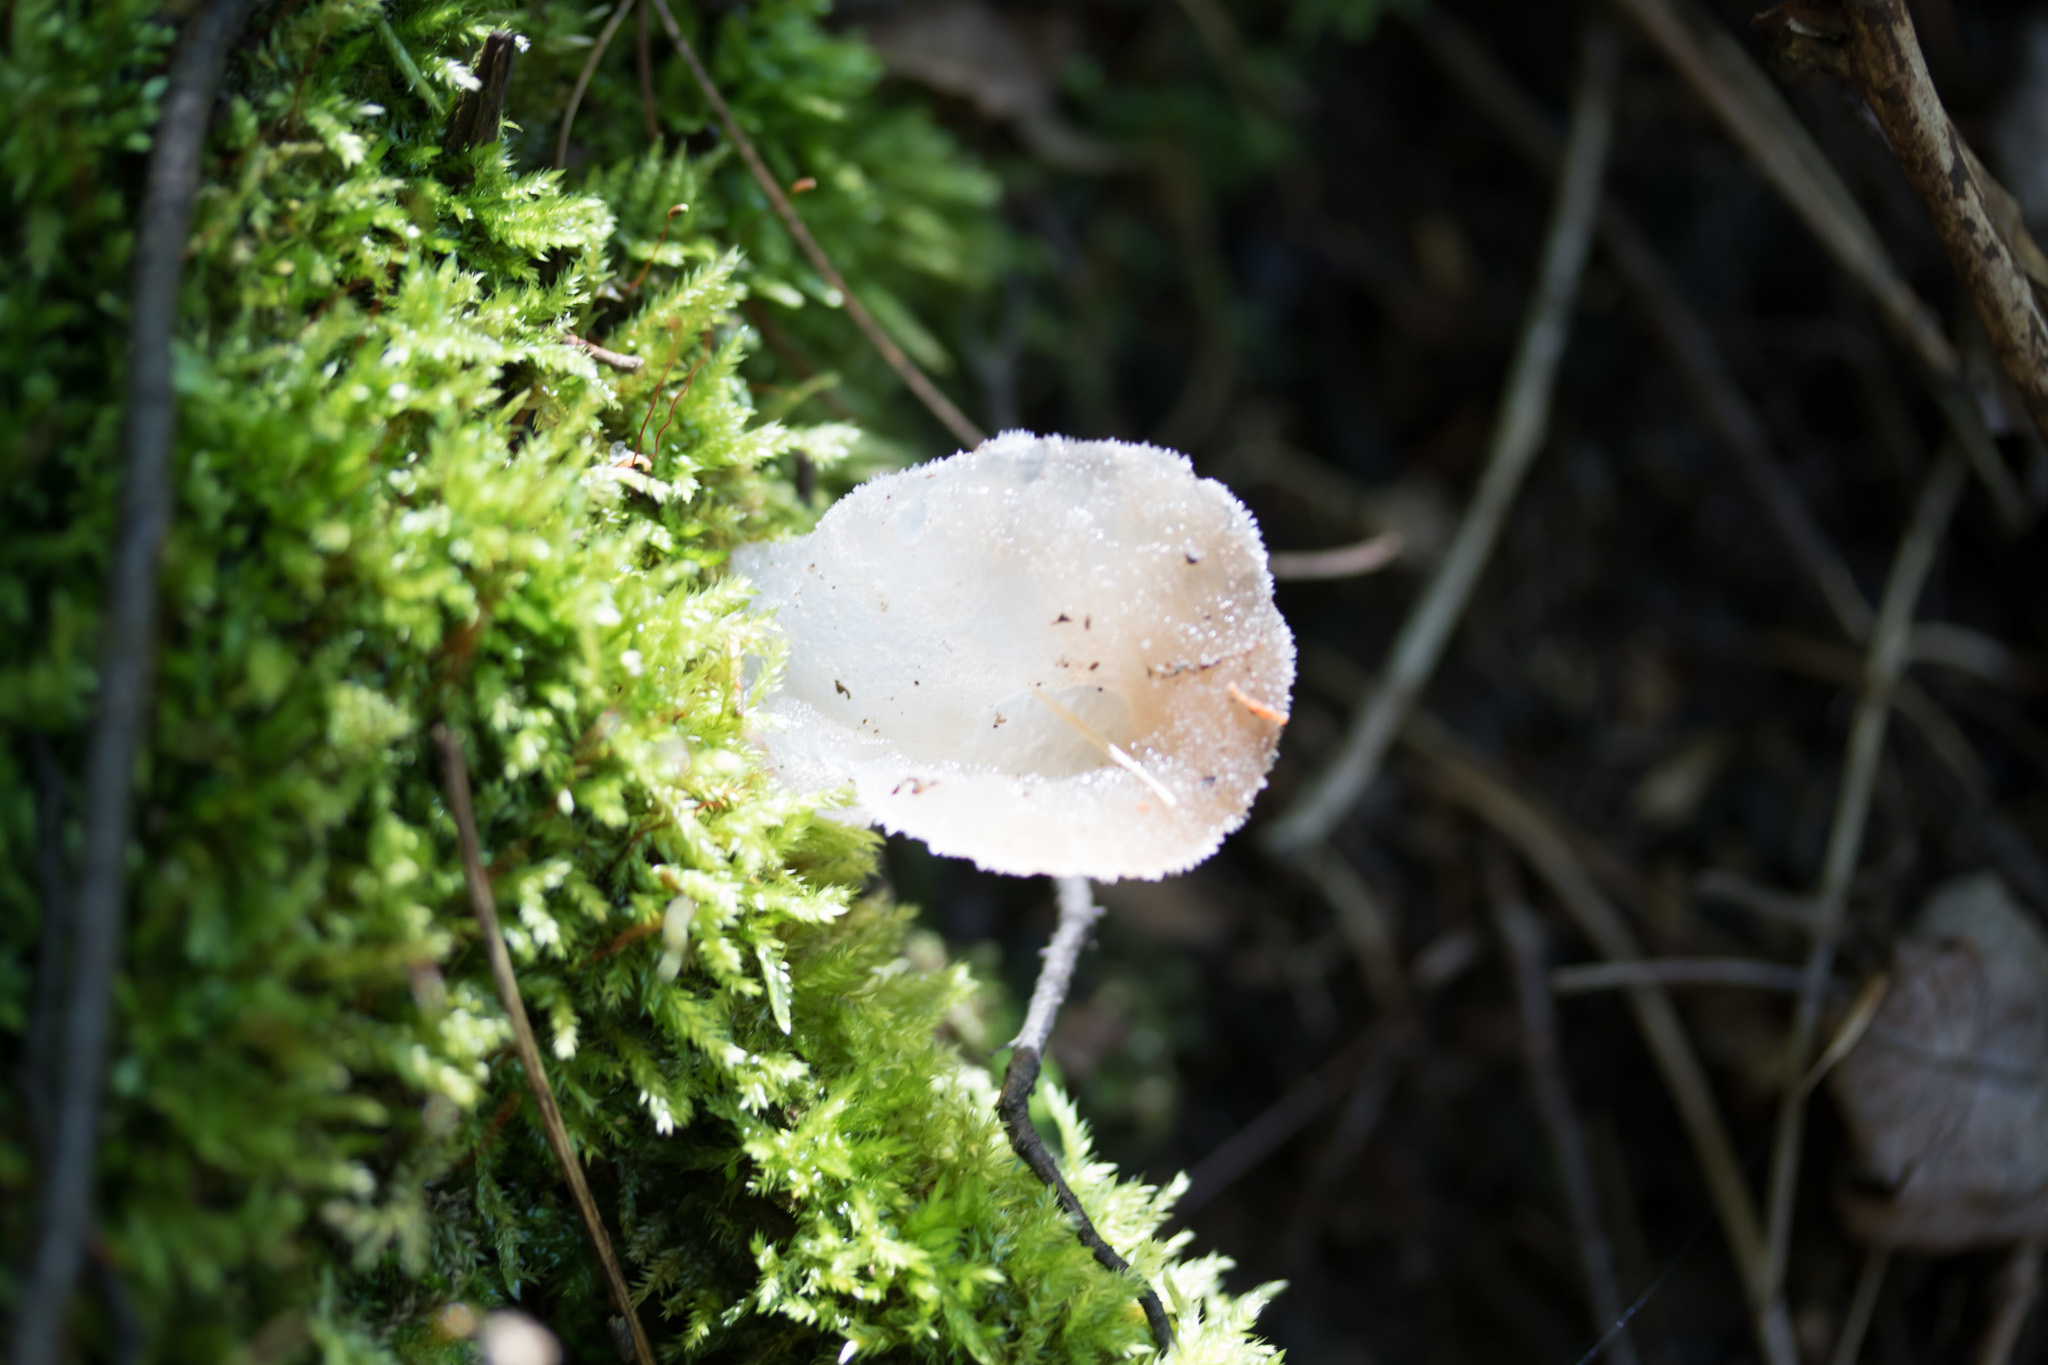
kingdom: Fungi
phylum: Basidiomycota
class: Agaricomycetes
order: Auriculariales
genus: Pseudohydnum
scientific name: Pseudohydnum gelatinosum
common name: Jelly tongue
